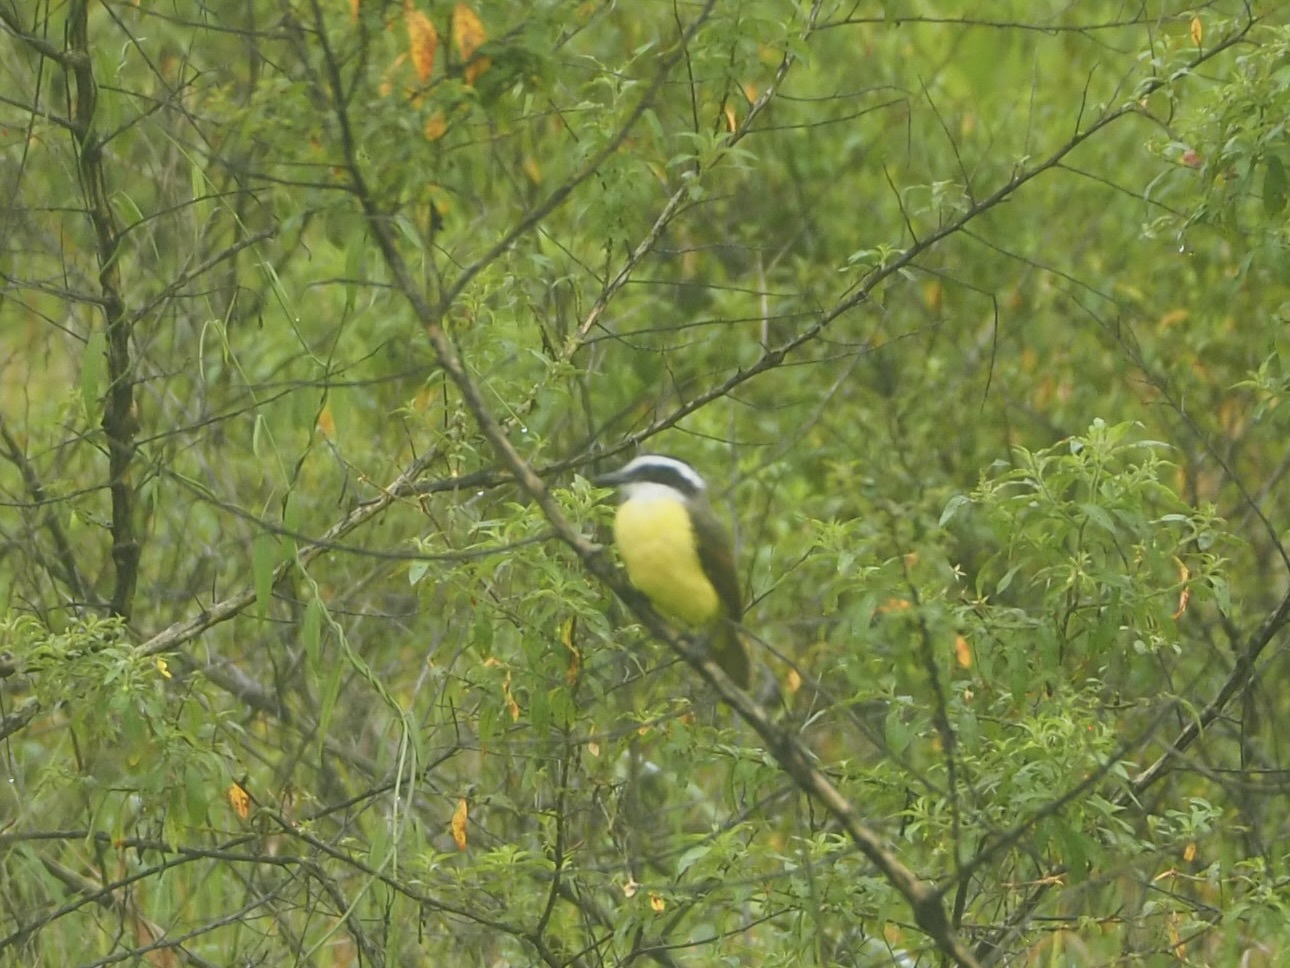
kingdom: Animalia
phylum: Chordata
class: Aves
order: Passeriformes
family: Tyrannidae
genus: Pitangus
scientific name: Pitangus sulphuratus
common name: Great kiskadee
